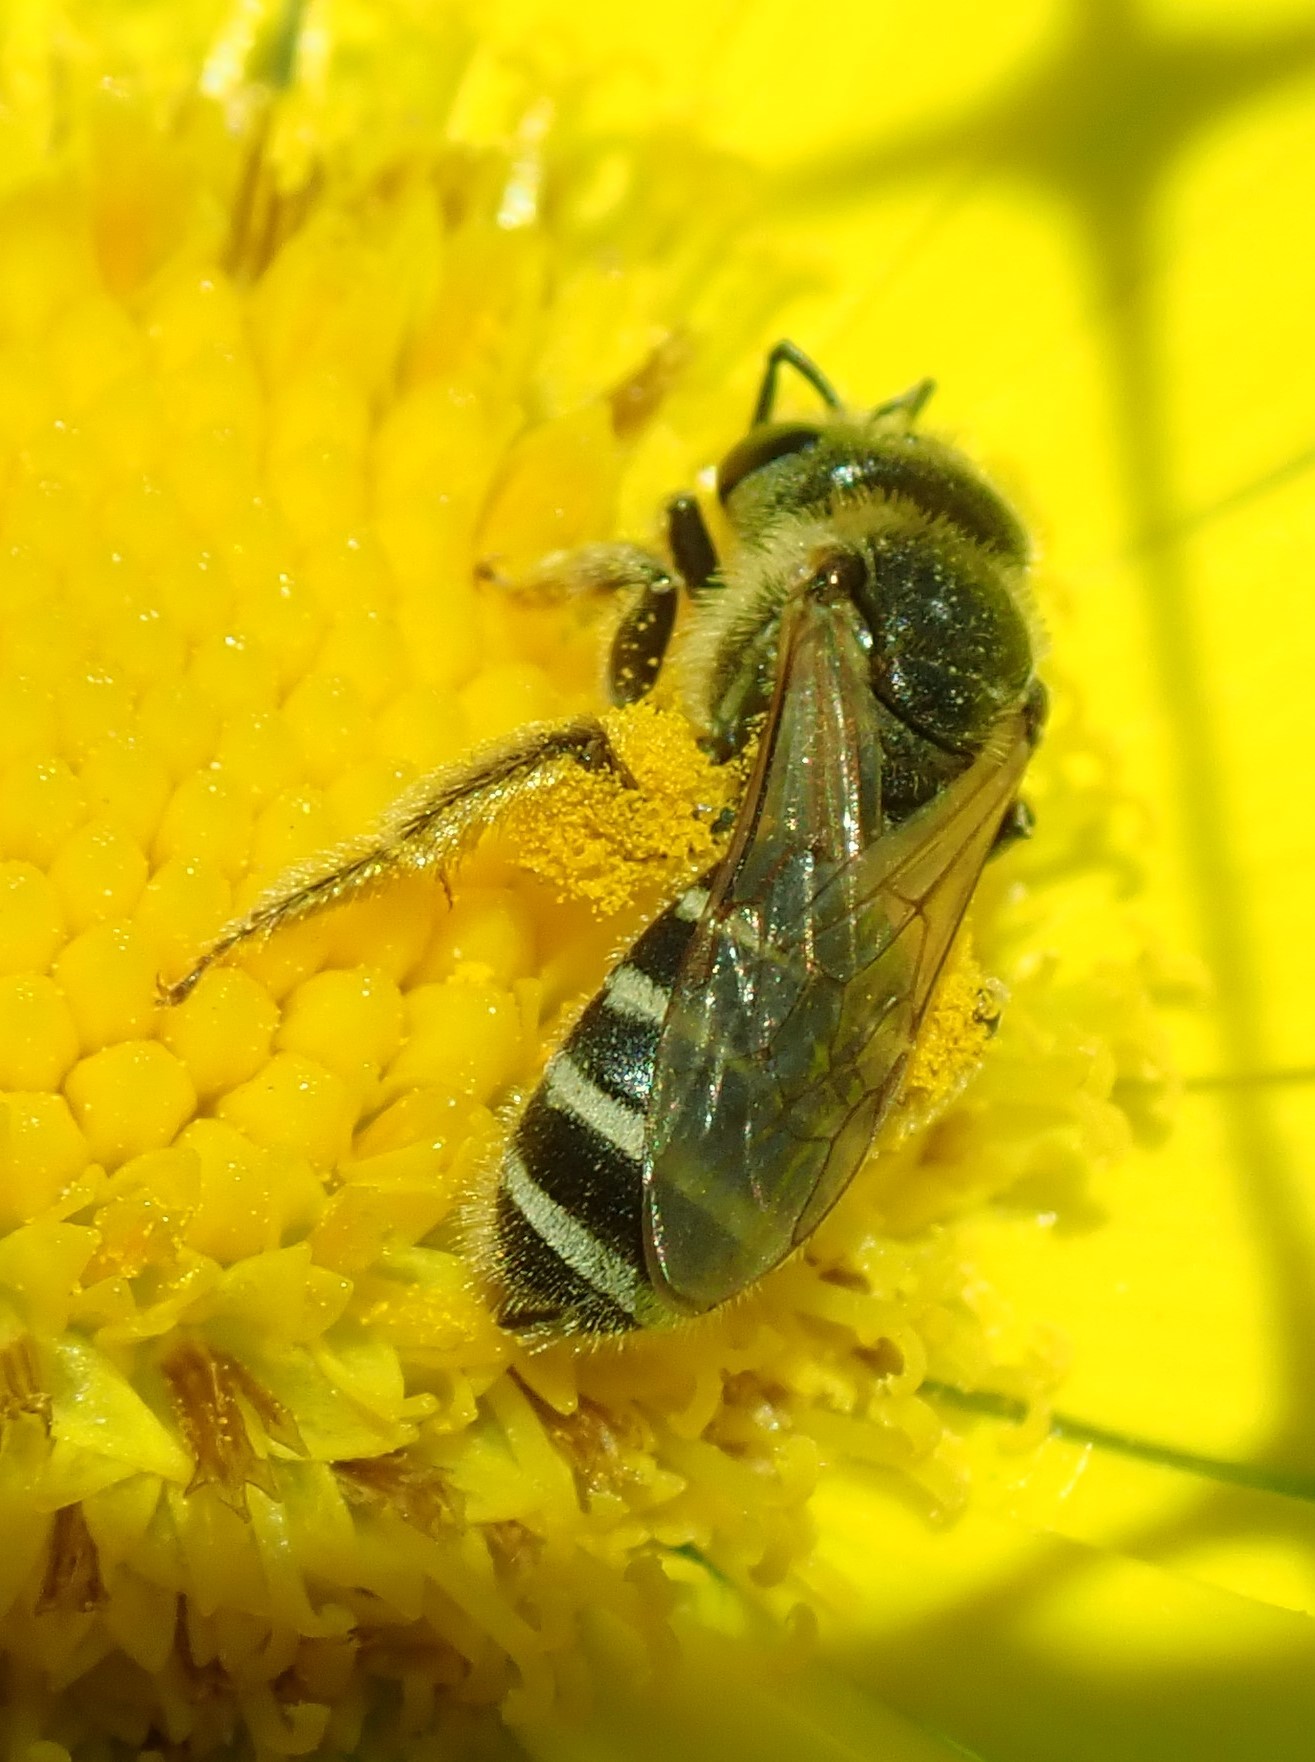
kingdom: Animalia
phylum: Arthropoda
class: Insecta
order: Hymenoptera
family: Halictidae
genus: Halictus
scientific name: Halictus ligatus
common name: Ligated furrow bee
